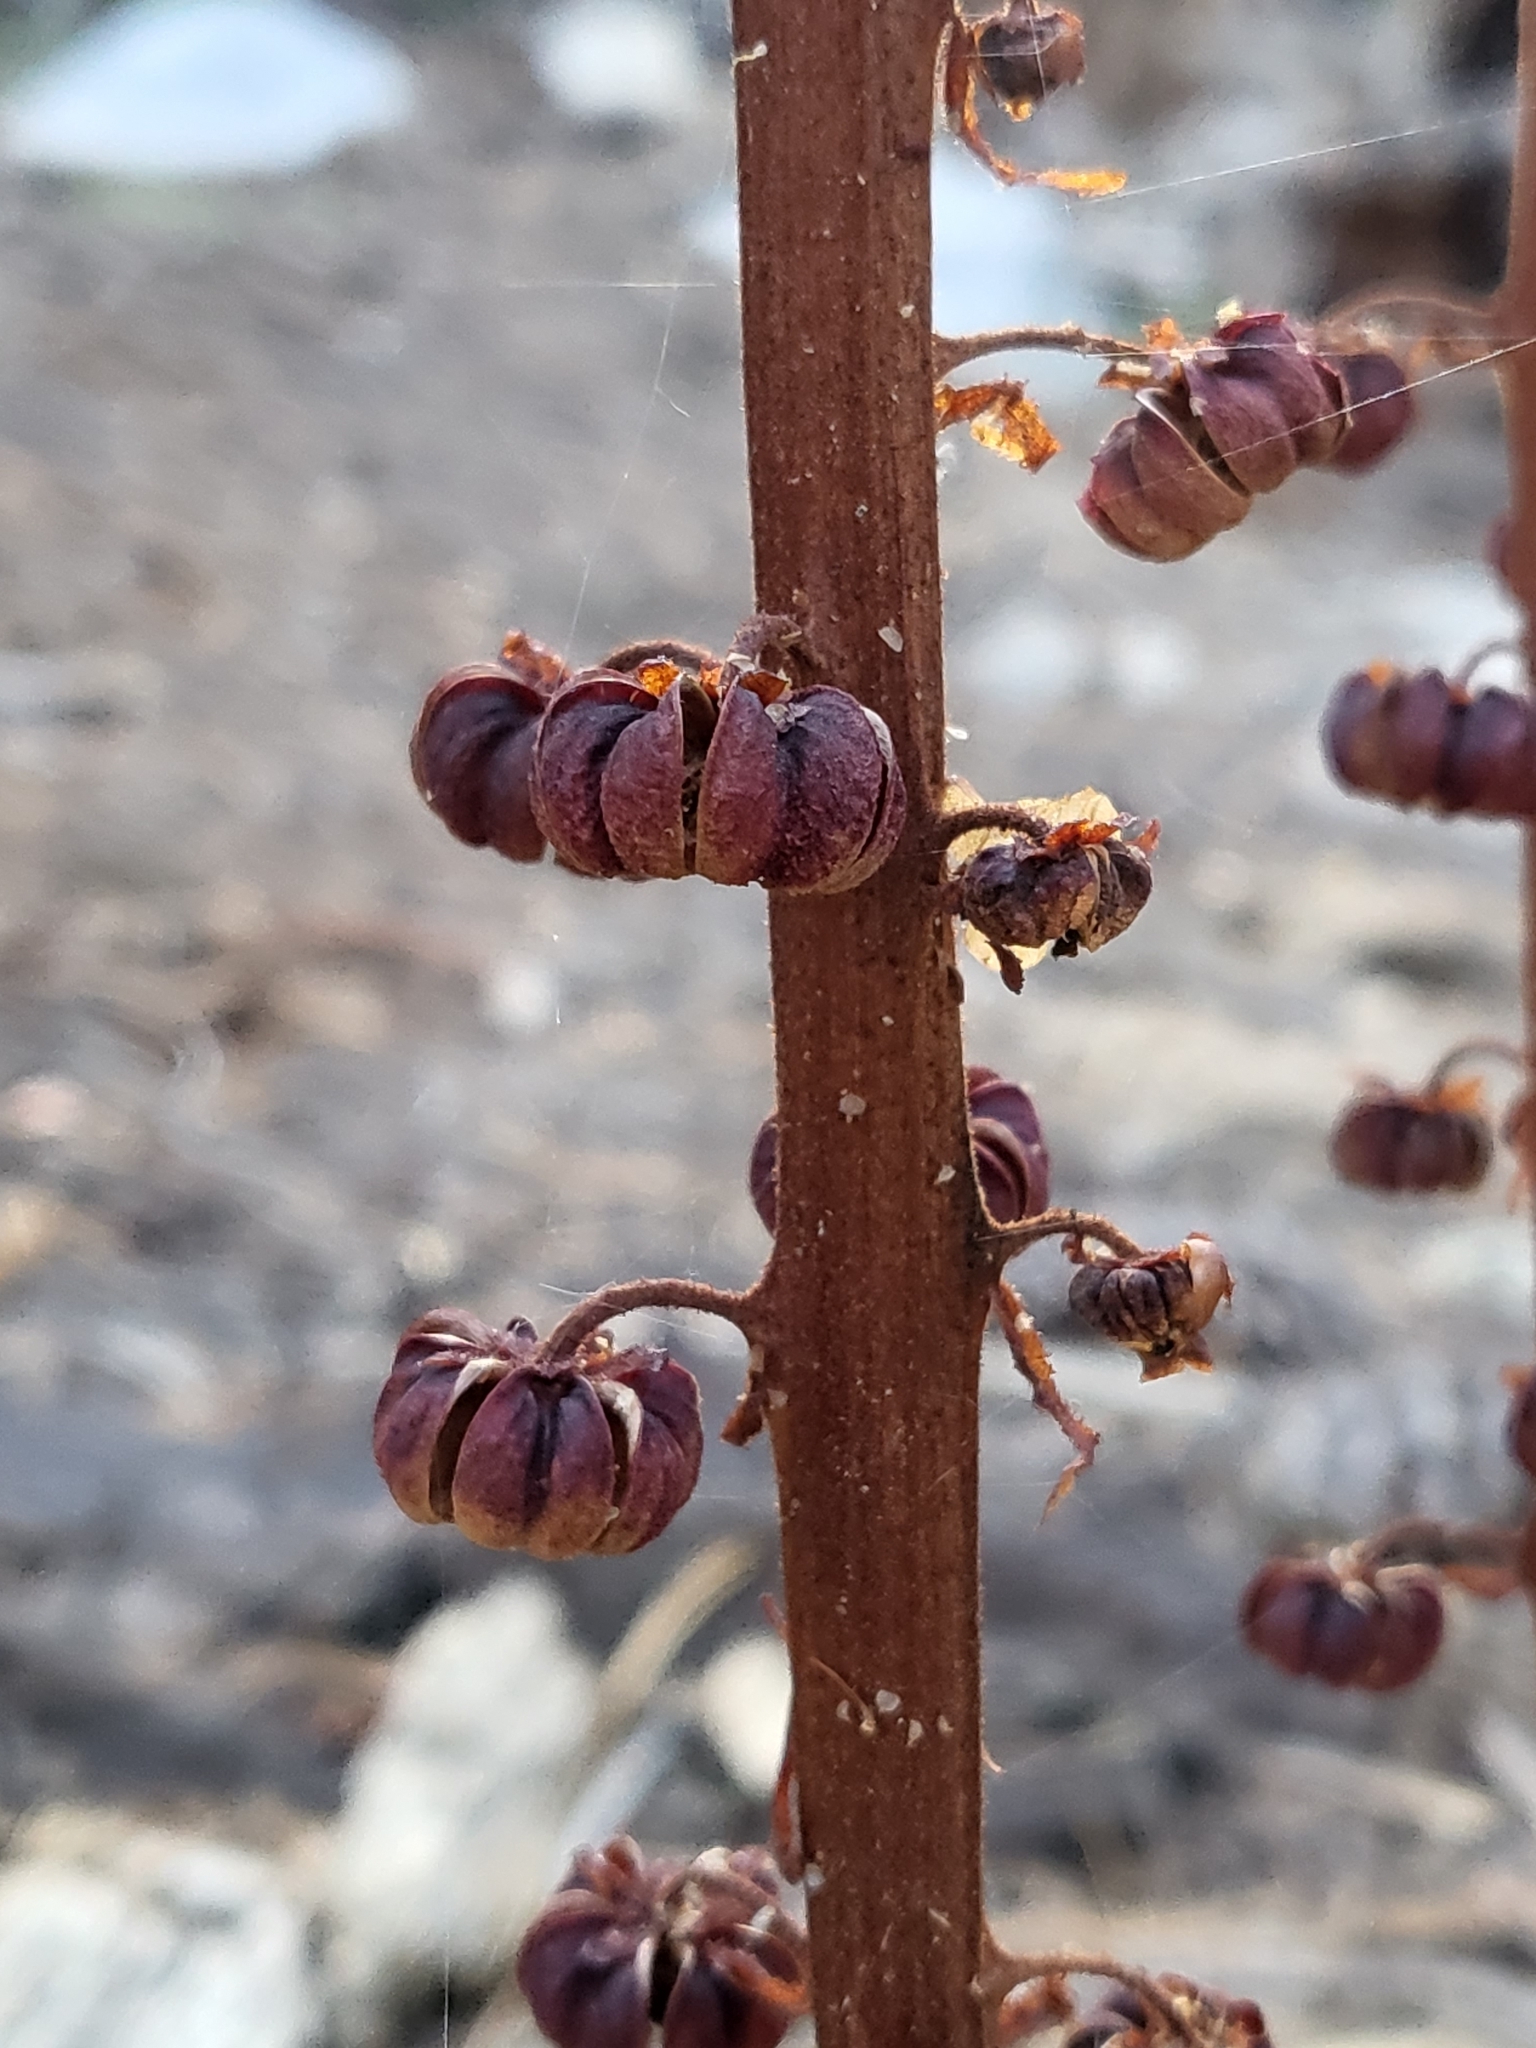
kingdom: Plantae
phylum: Tracheophyta
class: Magnoliopsida
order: Ericales
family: Ericaceae
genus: Pterospora
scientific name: Pterospora andromedea
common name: Giant bird's-nest
